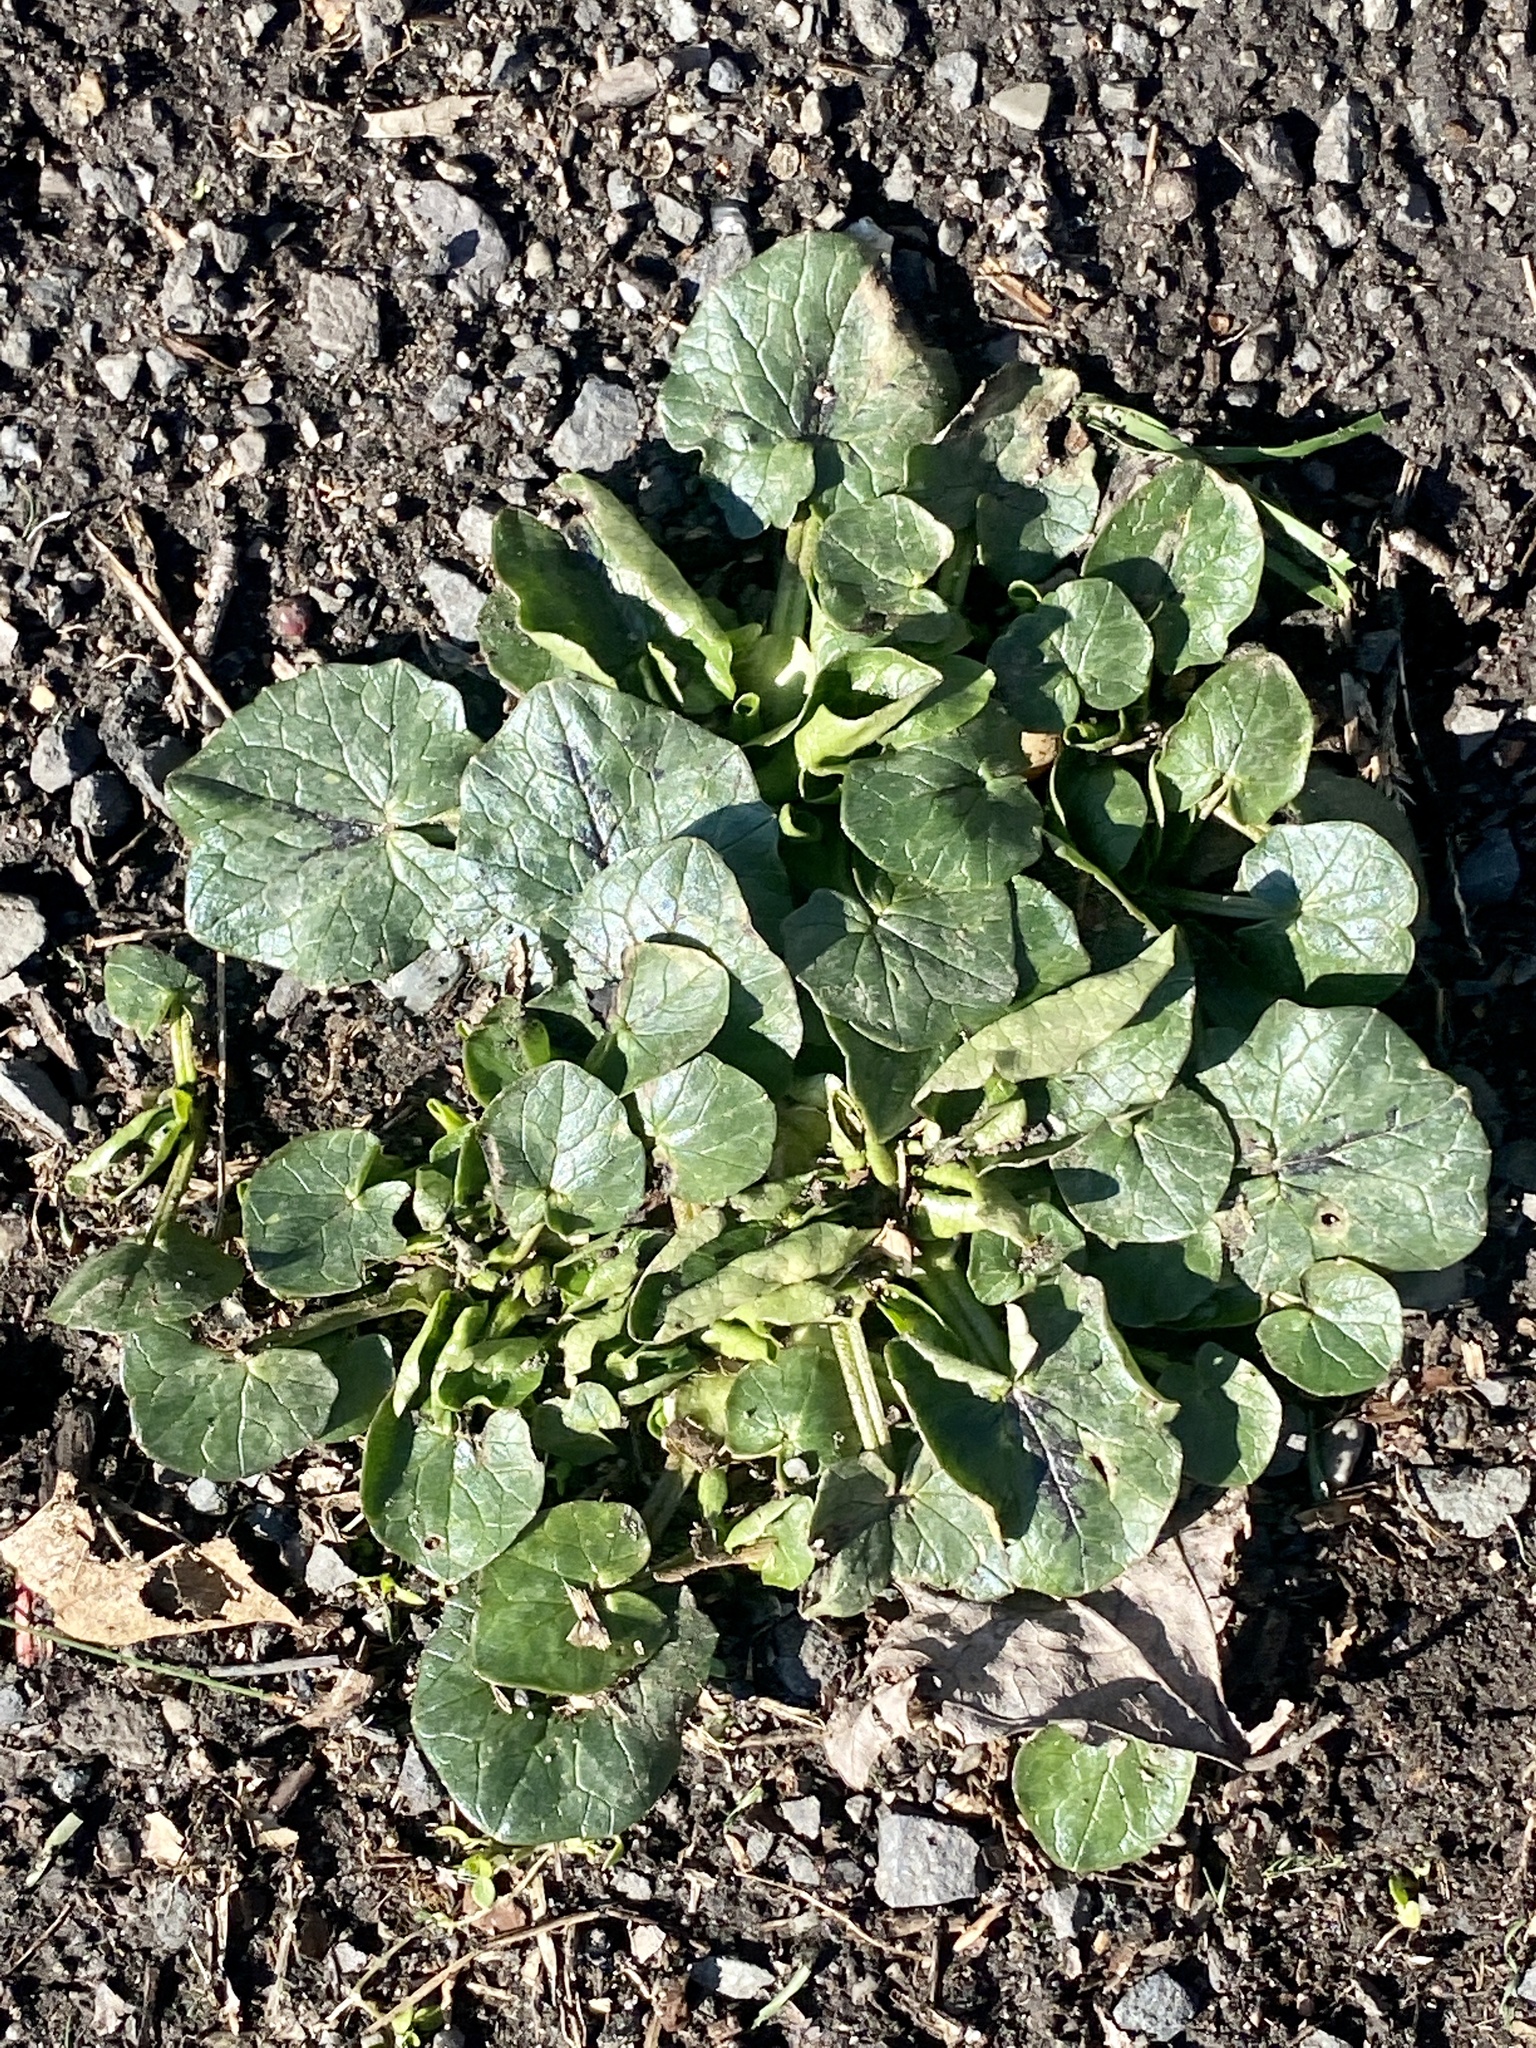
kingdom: Plantae
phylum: Tracheophyta
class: Magnoliopsida
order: Ranunculales
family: Ranunculaceae
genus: Ficaria
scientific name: Ficaria verna
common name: Lesser celandine
